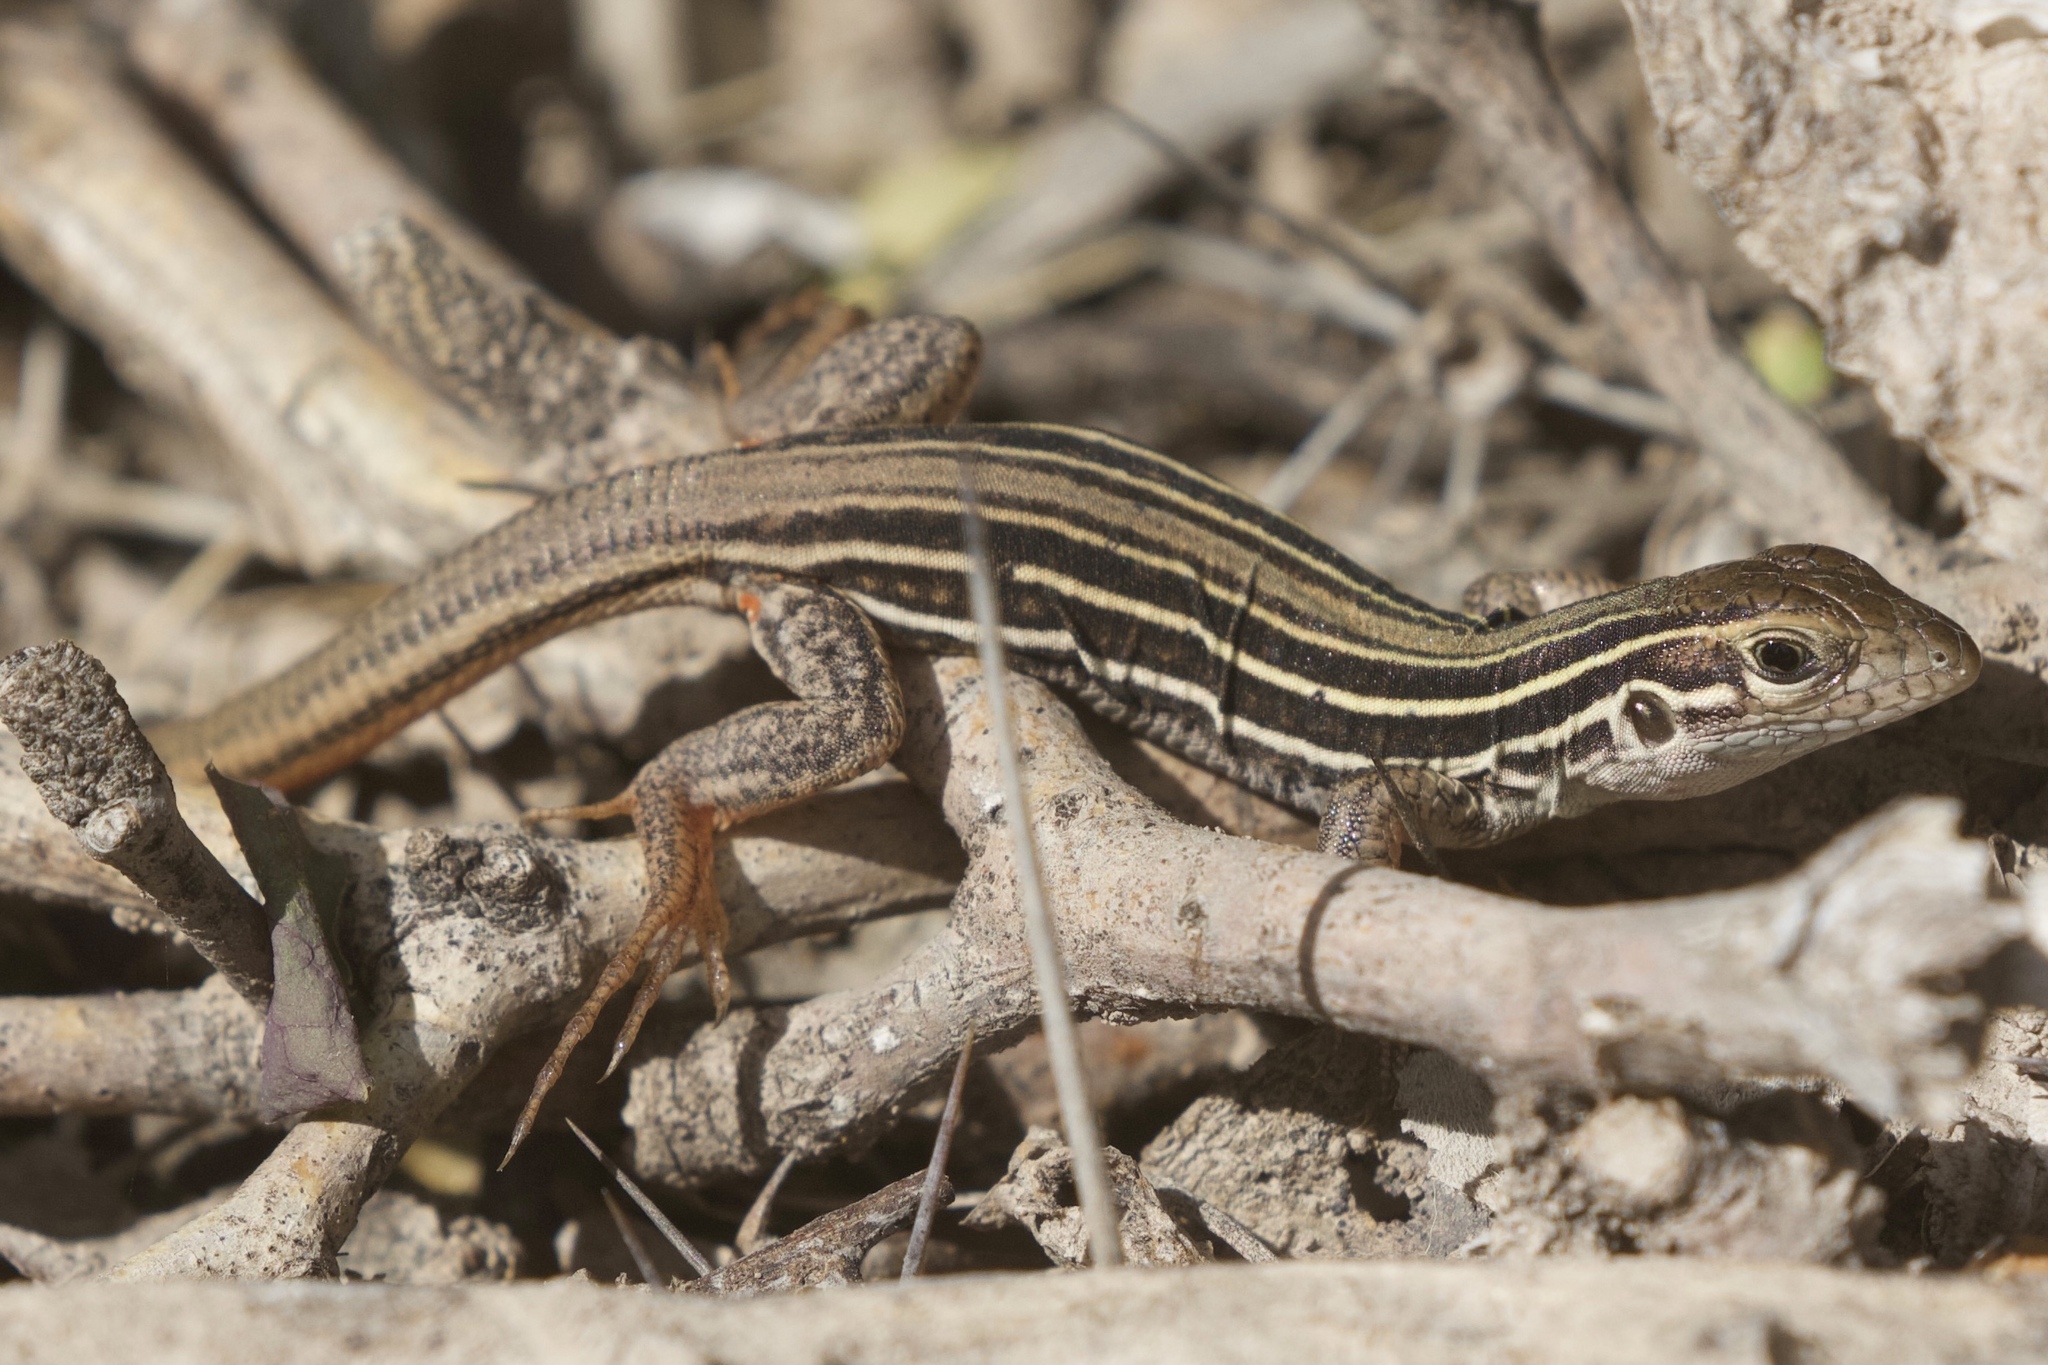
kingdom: Animalia
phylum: Chordata
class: Squamata
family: Teiidae
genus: Aspidoscelis
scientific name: Aspidoscelis gularis
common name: Eastern spotted whiptail
